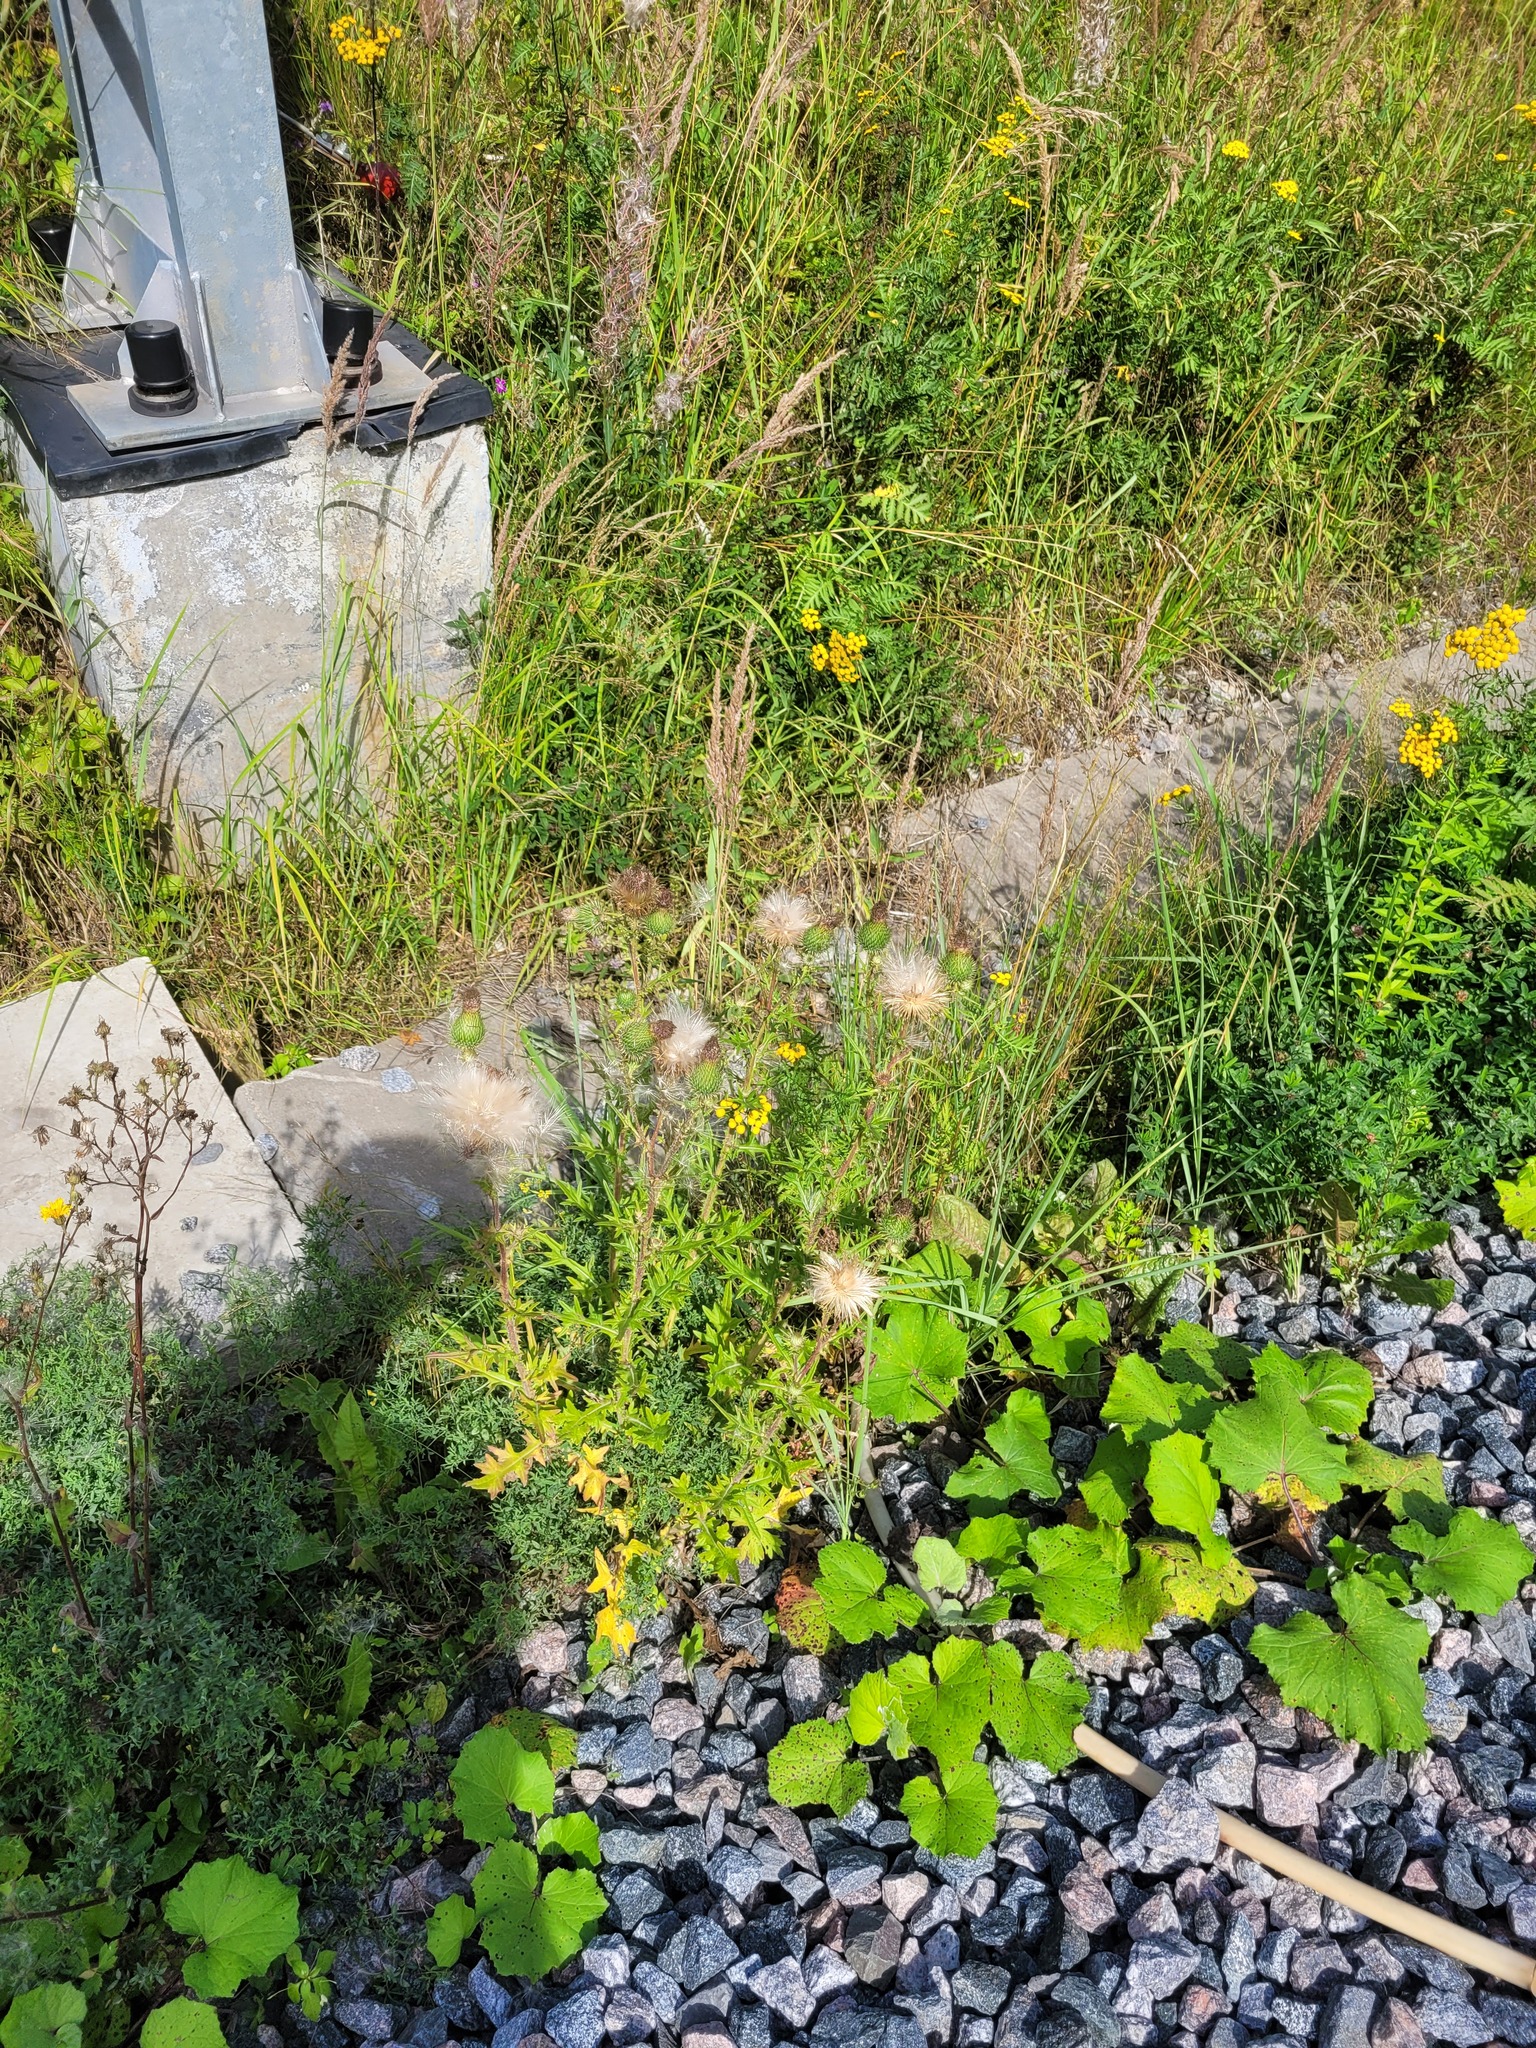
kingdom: Plantae
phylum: Tracheophyta
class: Magnoliopsida
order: Asterales
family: Asteraceae
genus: Cirsium
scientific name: Cirsium vulgare
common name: Bull thistle
